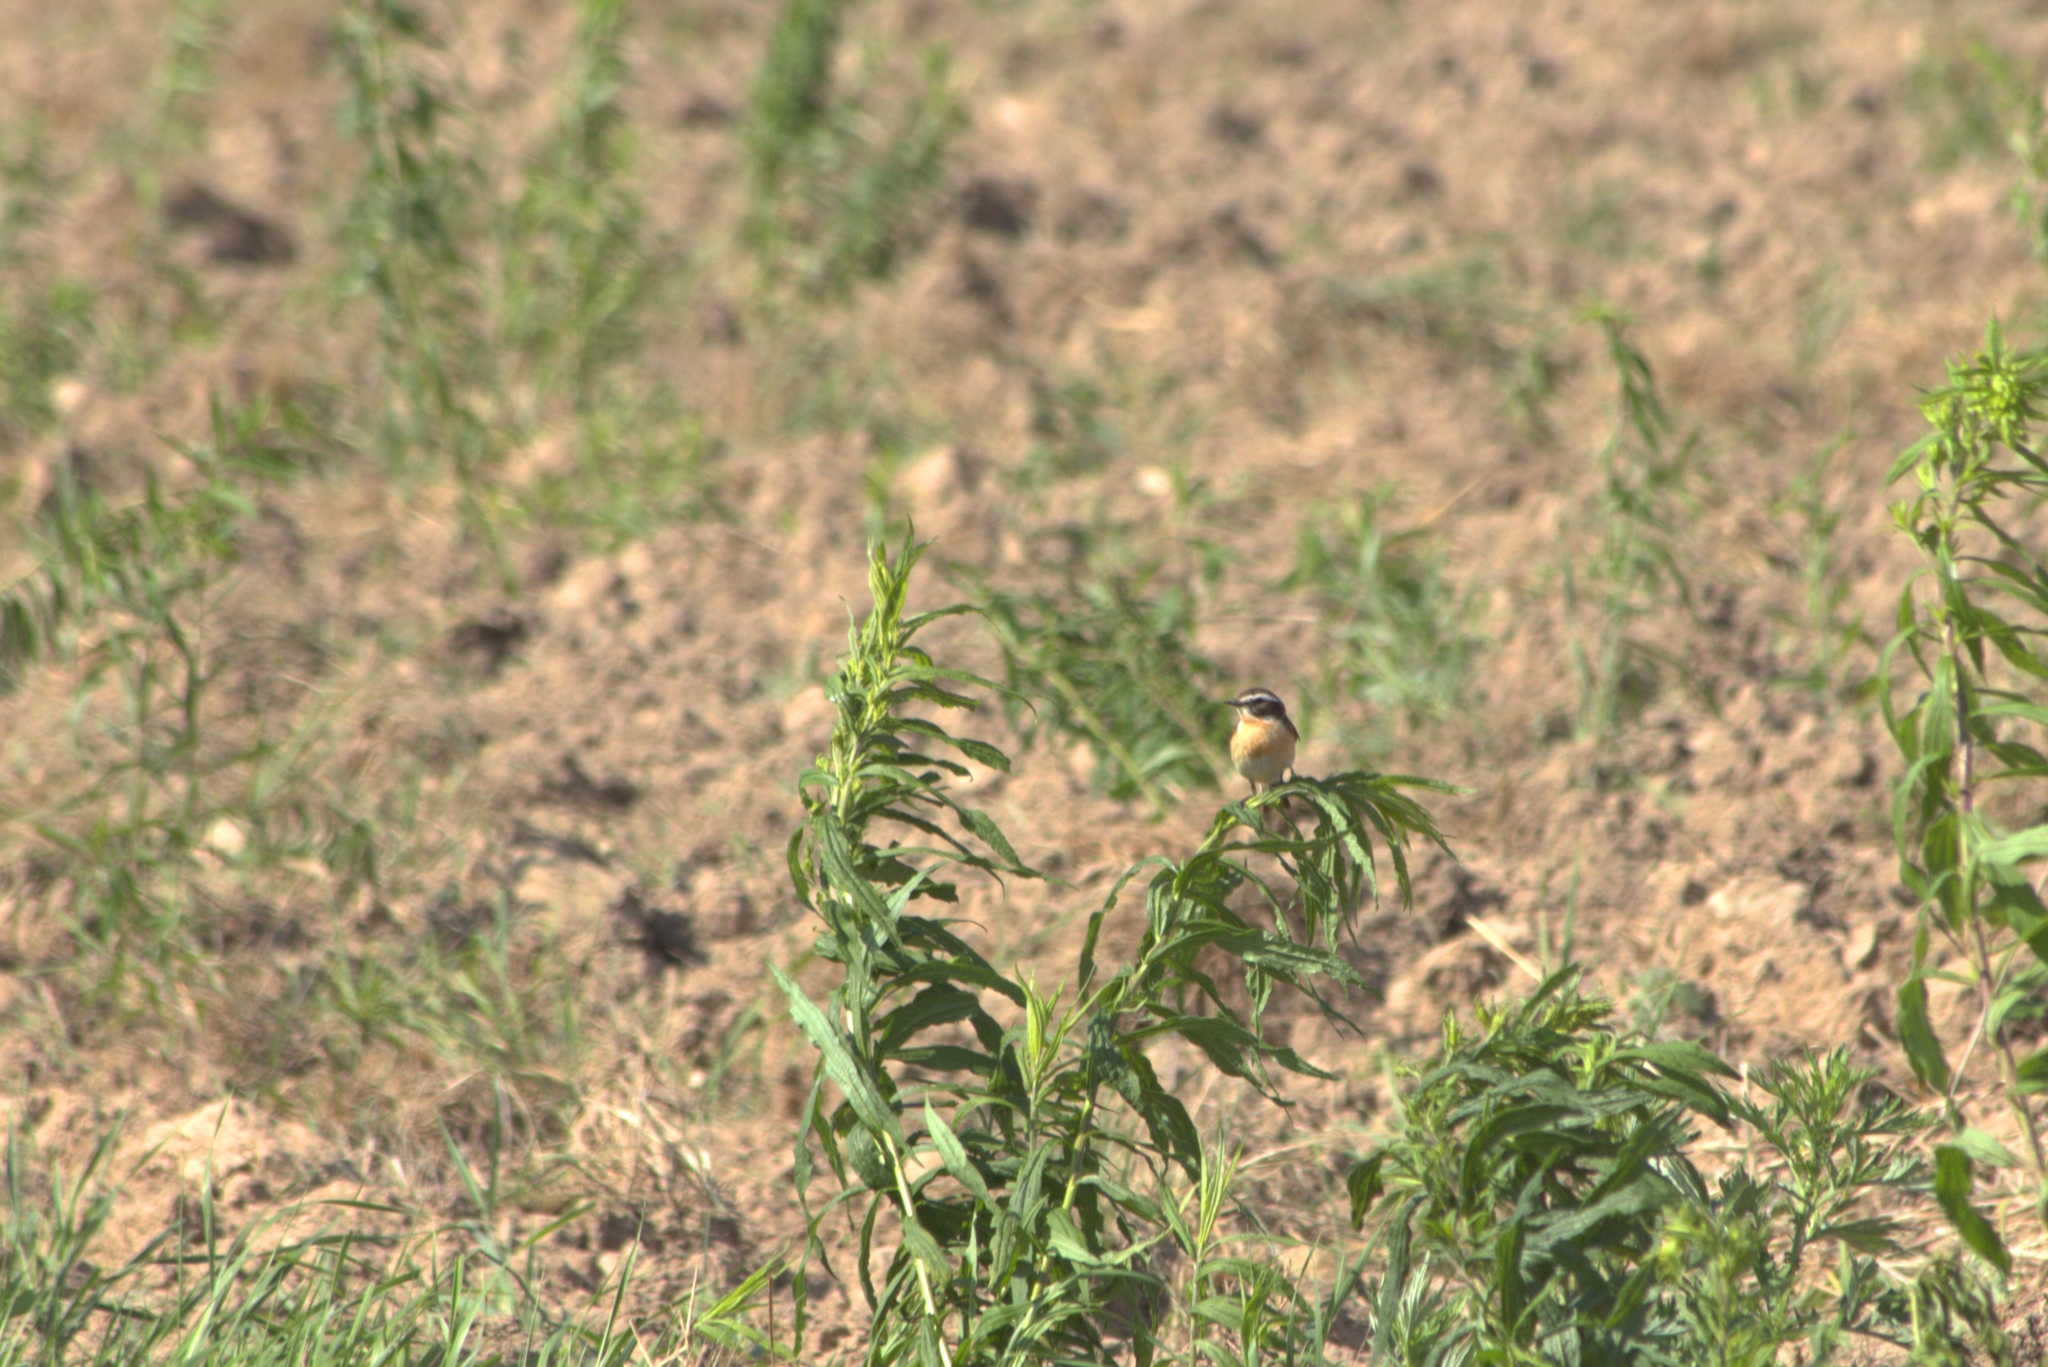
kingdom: Animalia
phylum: Chordata
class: Aves
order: Passeriformes
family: Muscicapidae
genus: Saxicola
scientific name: Saxicola rubetra
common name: Whinchat
